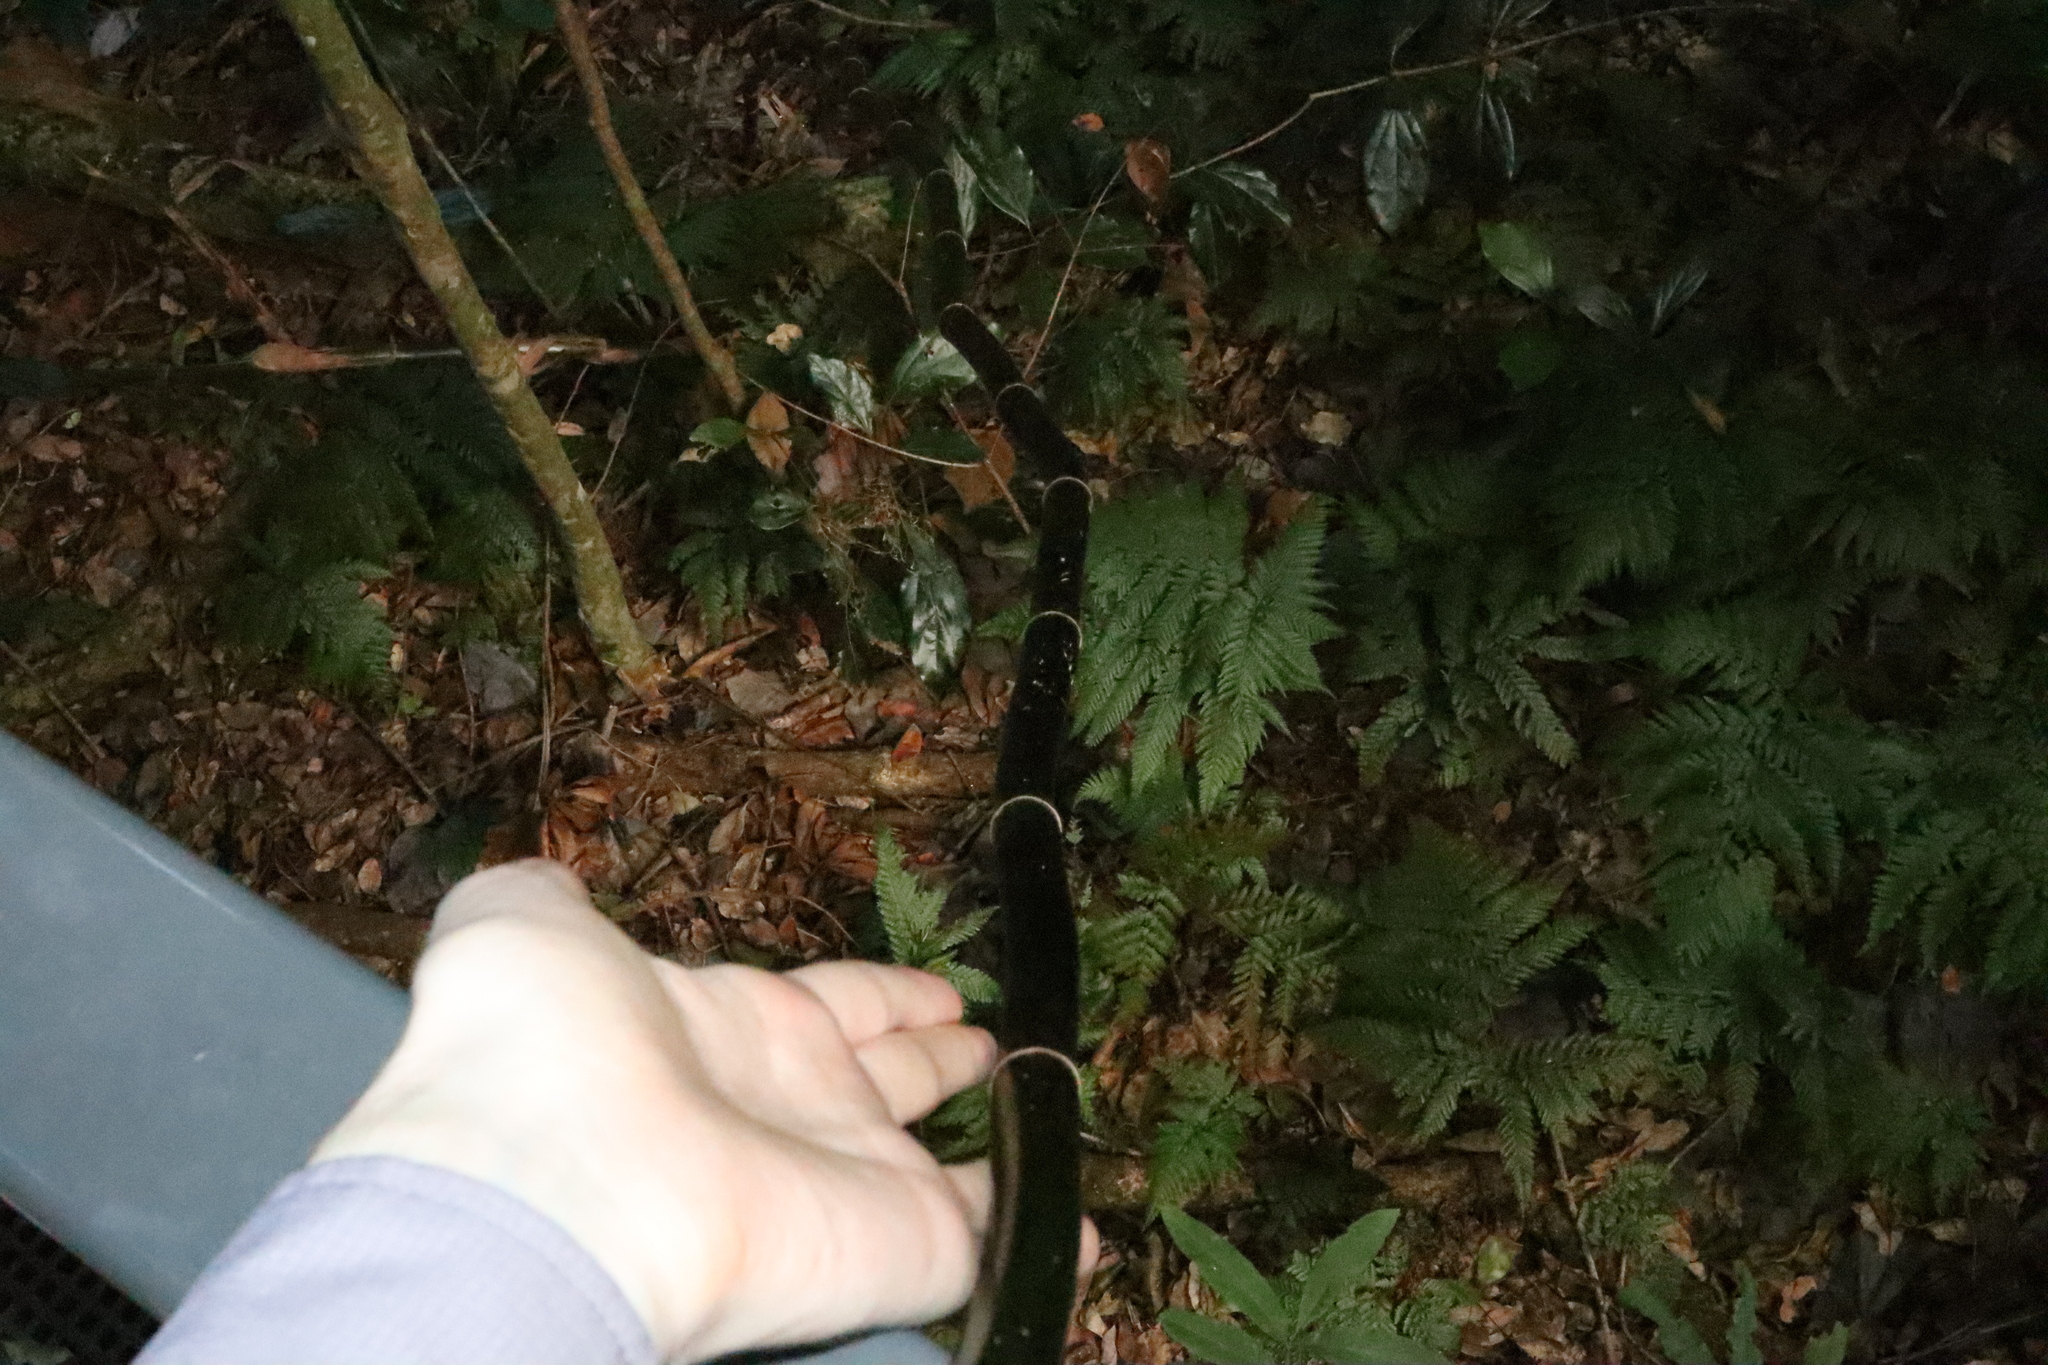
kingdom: Plantae
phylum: Tracheophyta
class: Liliopsida
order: Poales
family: Flagellariaceae
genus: Flagellaria
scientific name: Flagellaria indica
